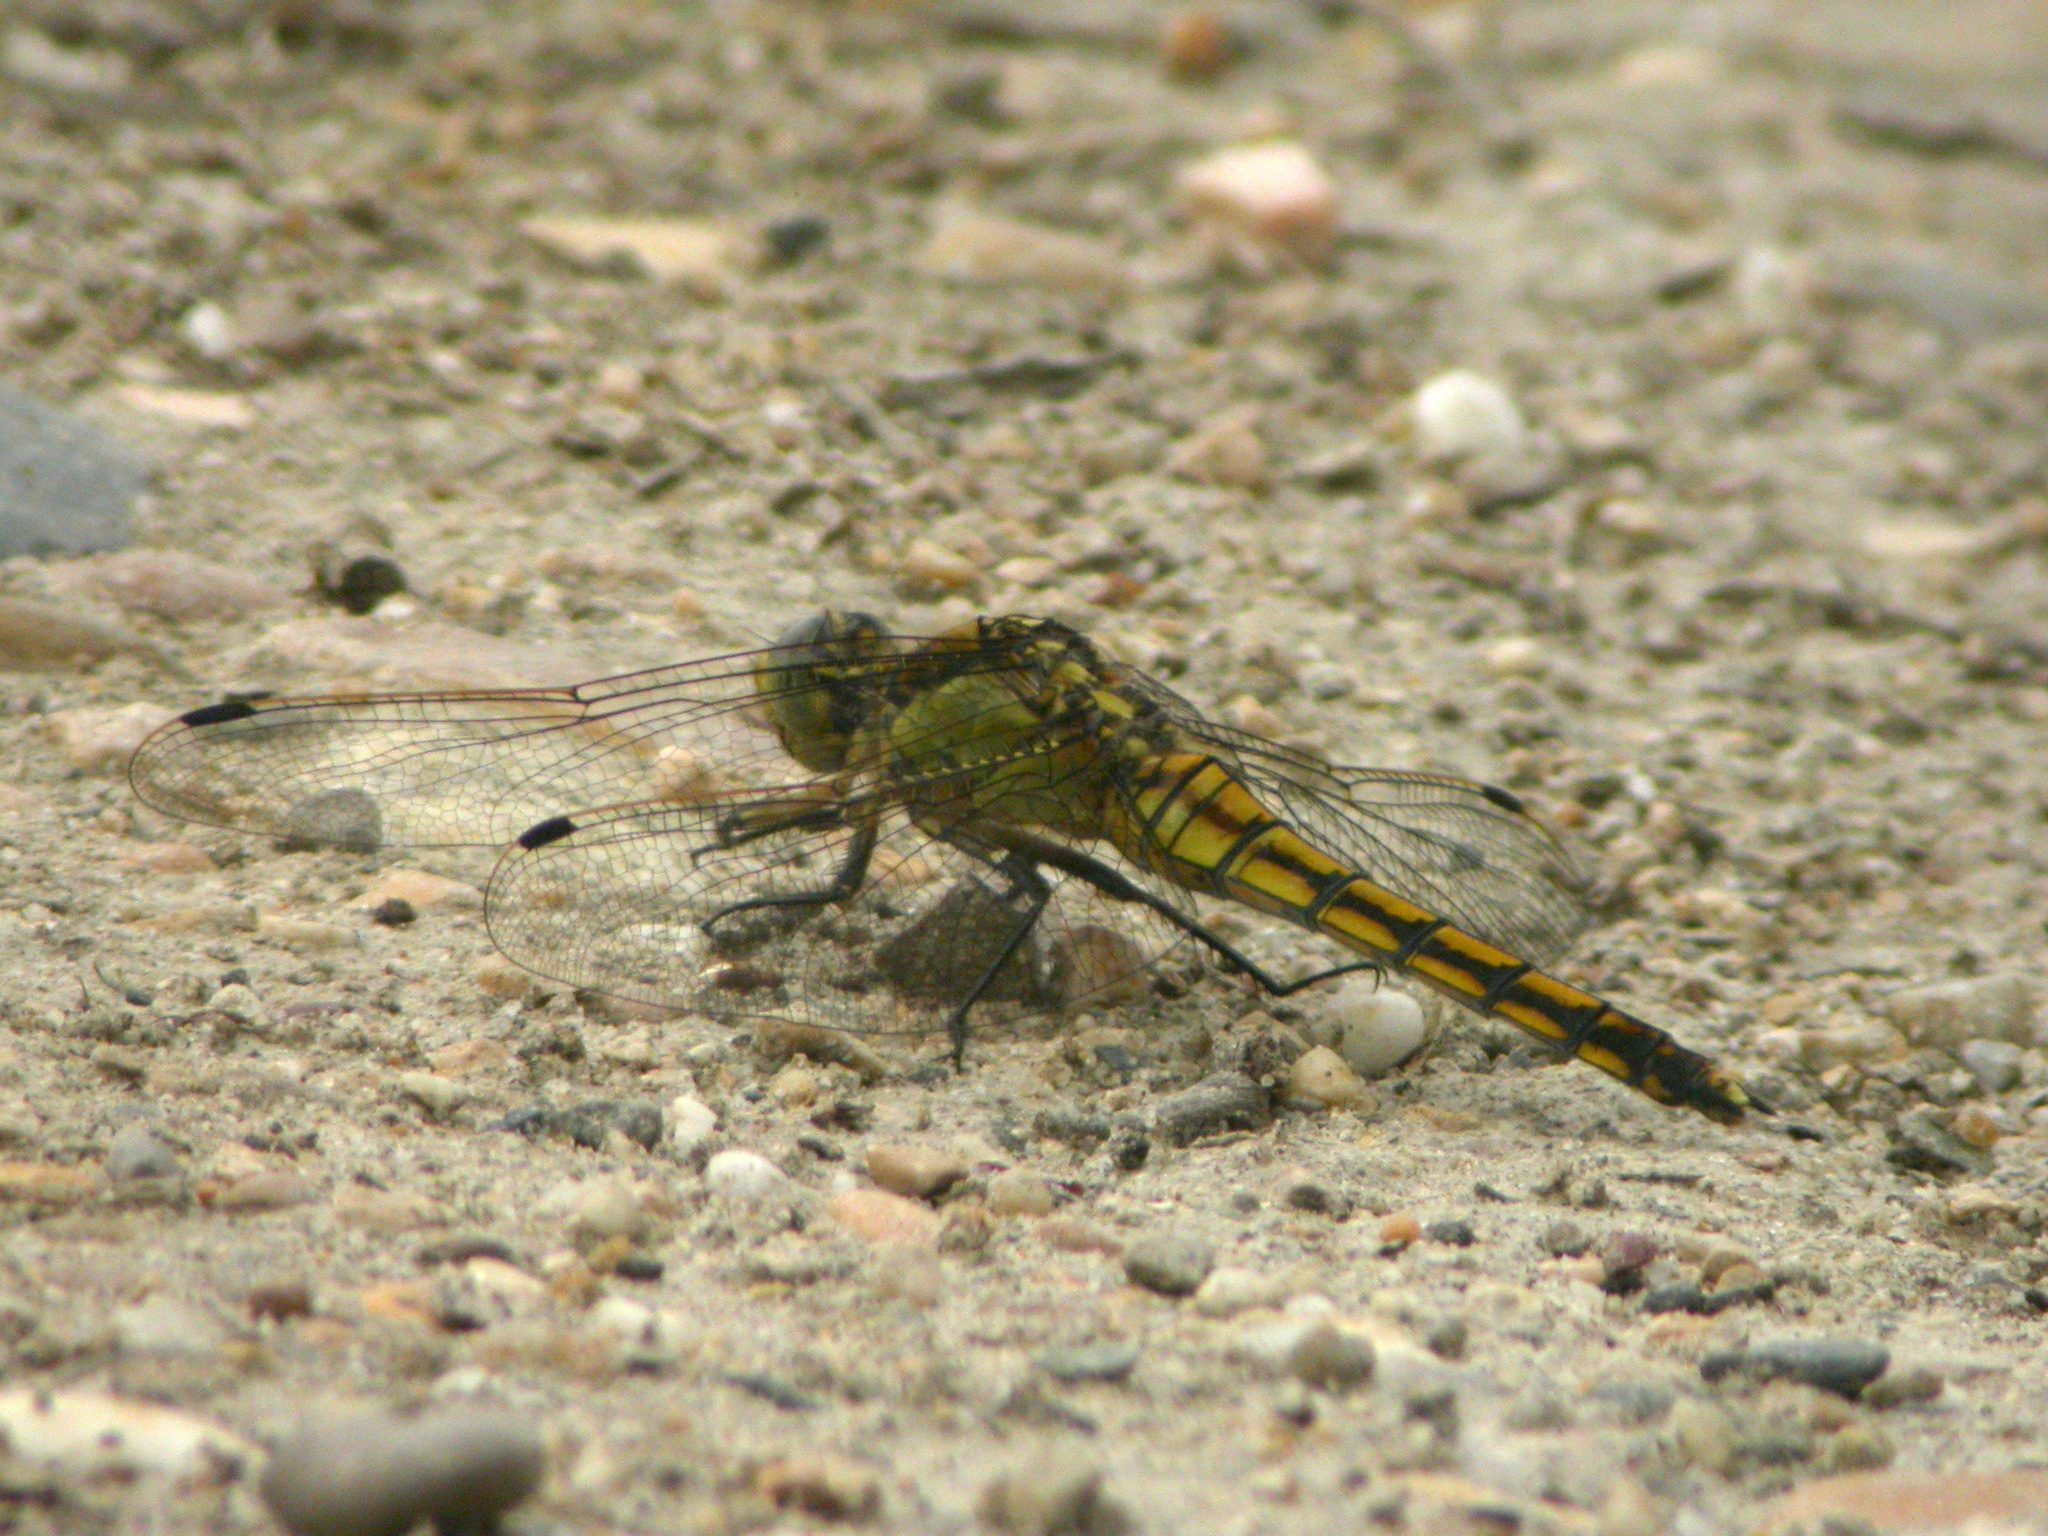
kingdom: Animalia
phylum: Arthropoda
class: Insecta
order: Odonata
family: Libellulidae
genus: Orthetrum
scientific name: Orthetrum cancellatum
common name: Black-tailed skimmer
